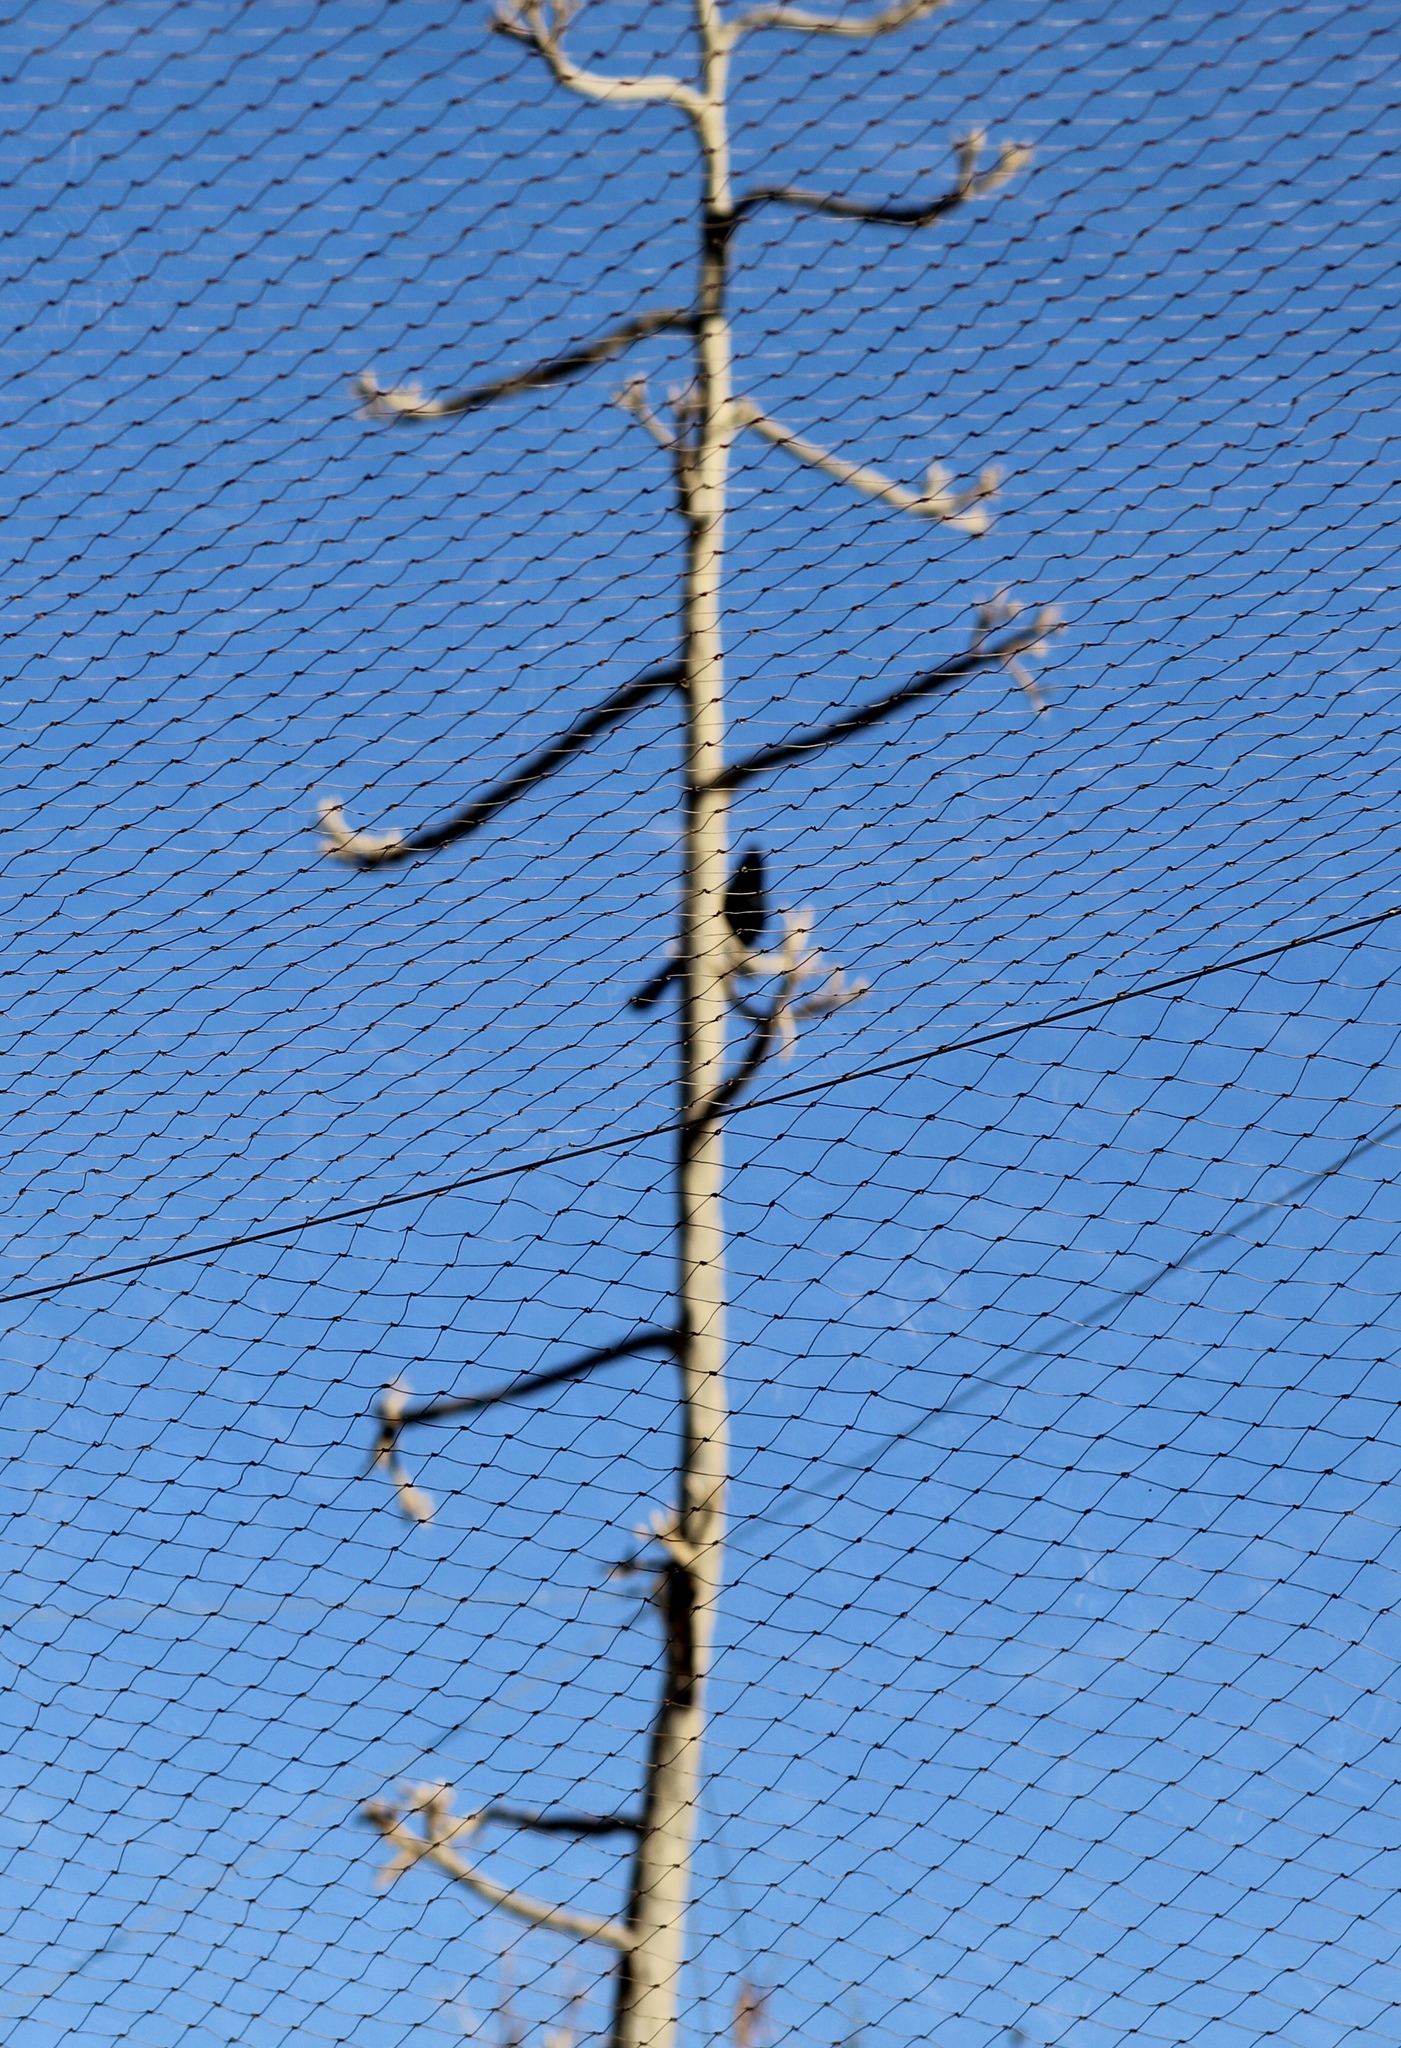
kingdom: Animalia
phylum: Chordata
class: Aves
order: Passeriformes
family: Ptilogonatidae
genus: Phainopepla
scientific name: Phainopepla nitens
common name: Phainopepla
